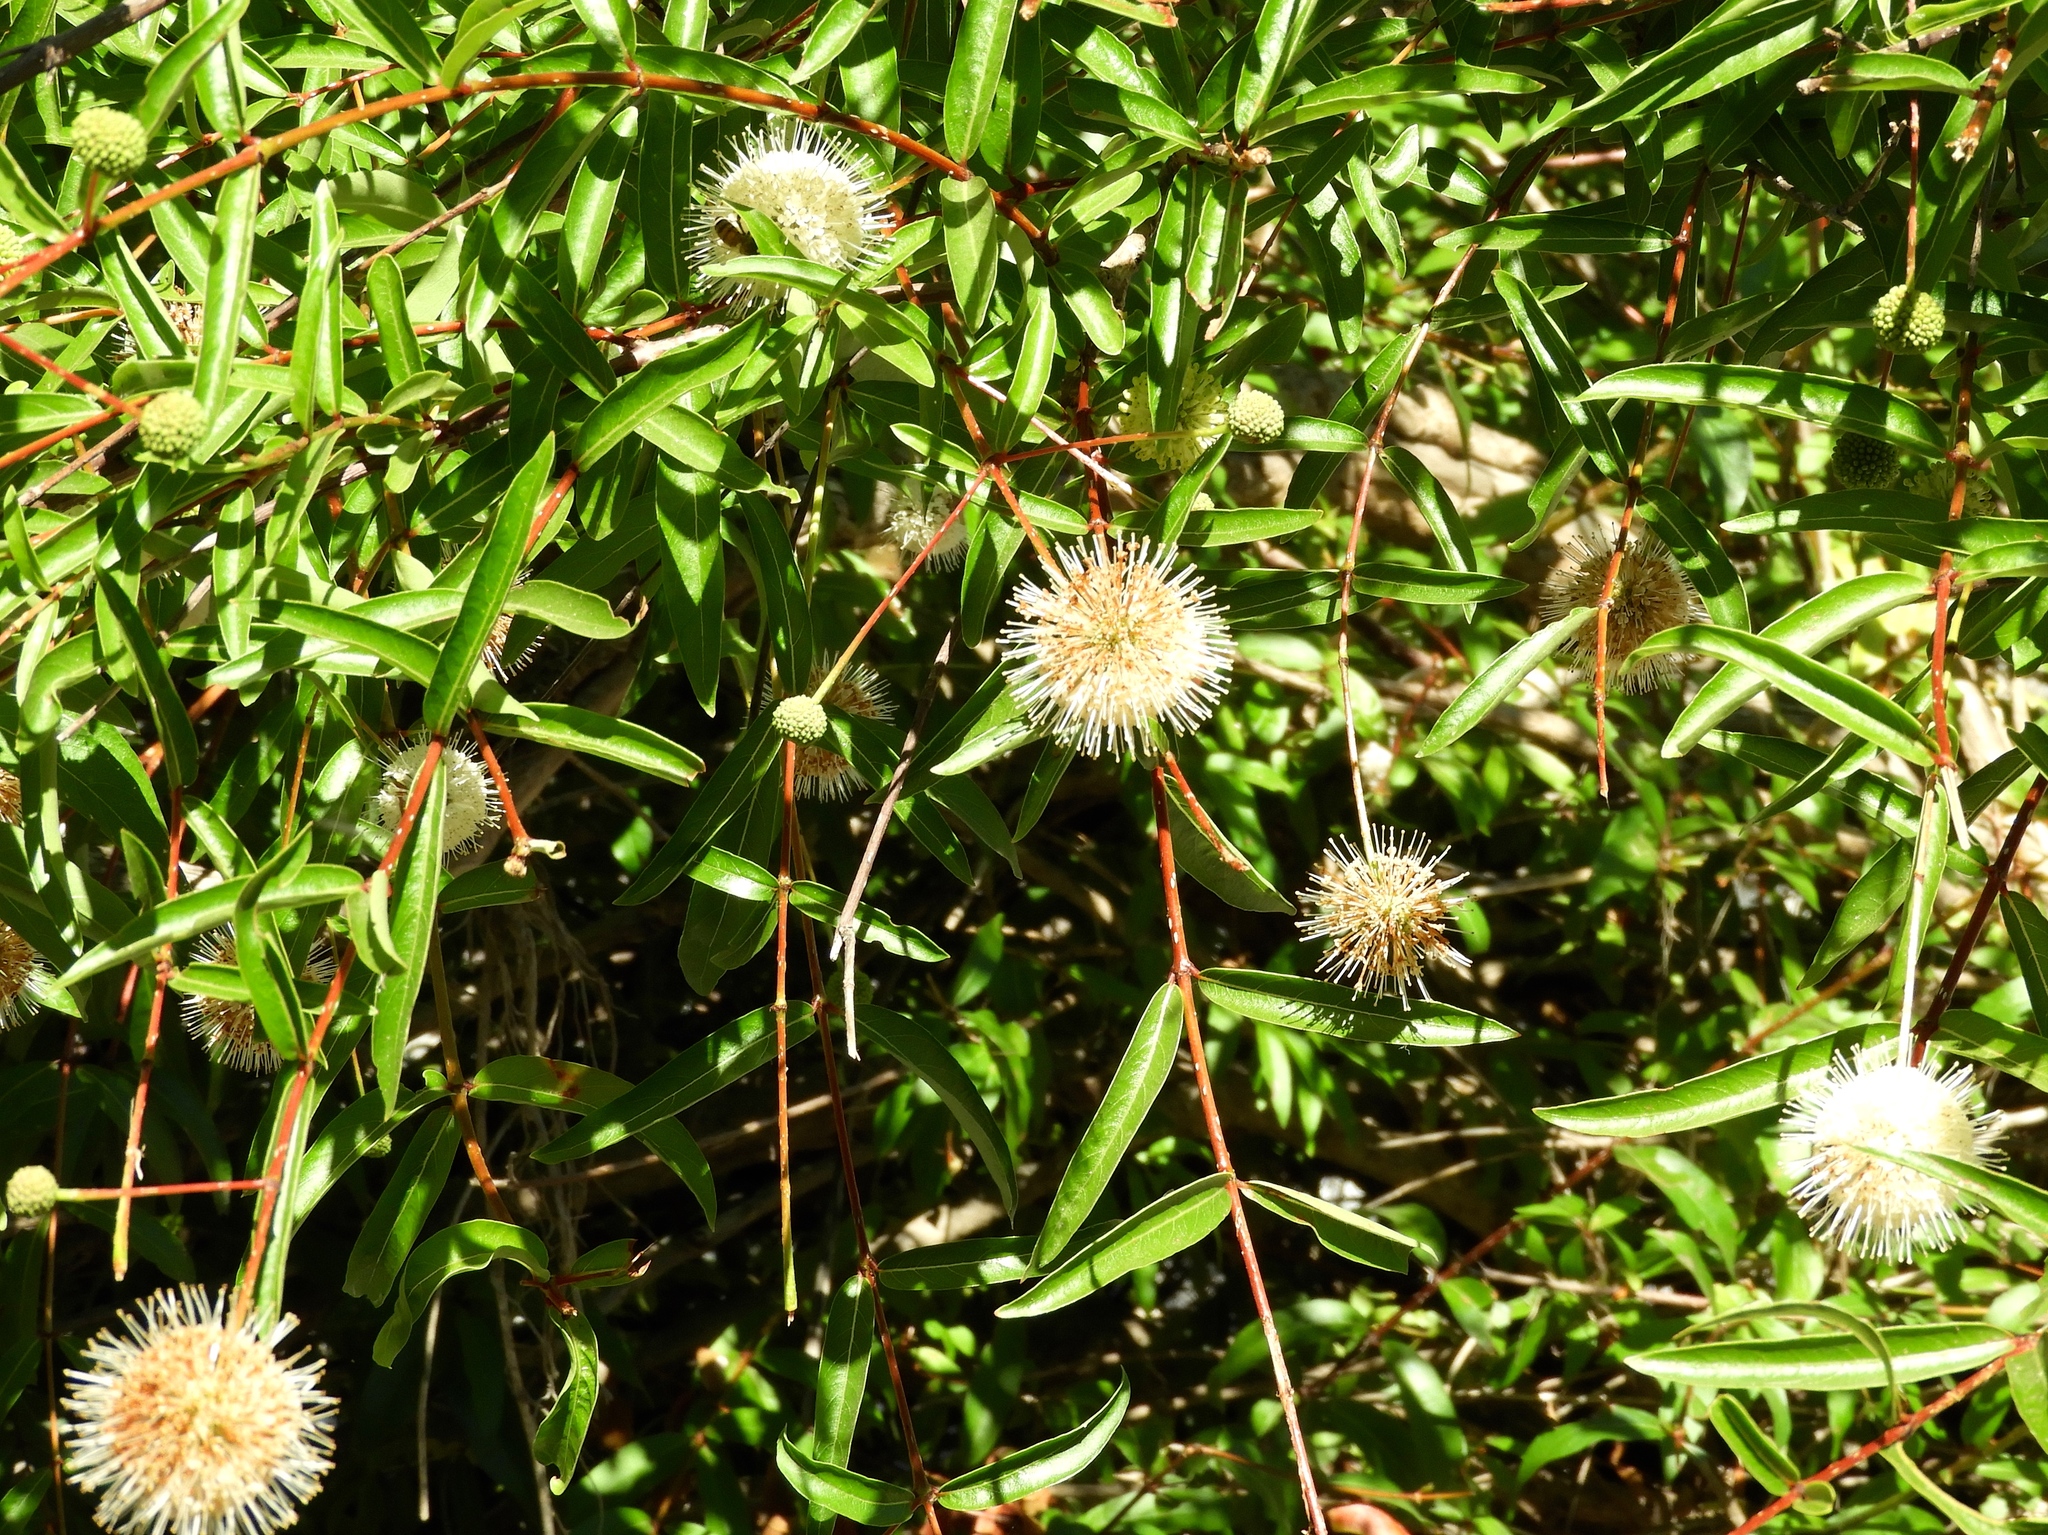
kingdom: Plantae
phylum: Tracheophyta
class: Magnoliopsida
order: Gentianales
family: Rubiaceae
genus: Cephalanthus
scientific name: Cephalanthus salicifolius
